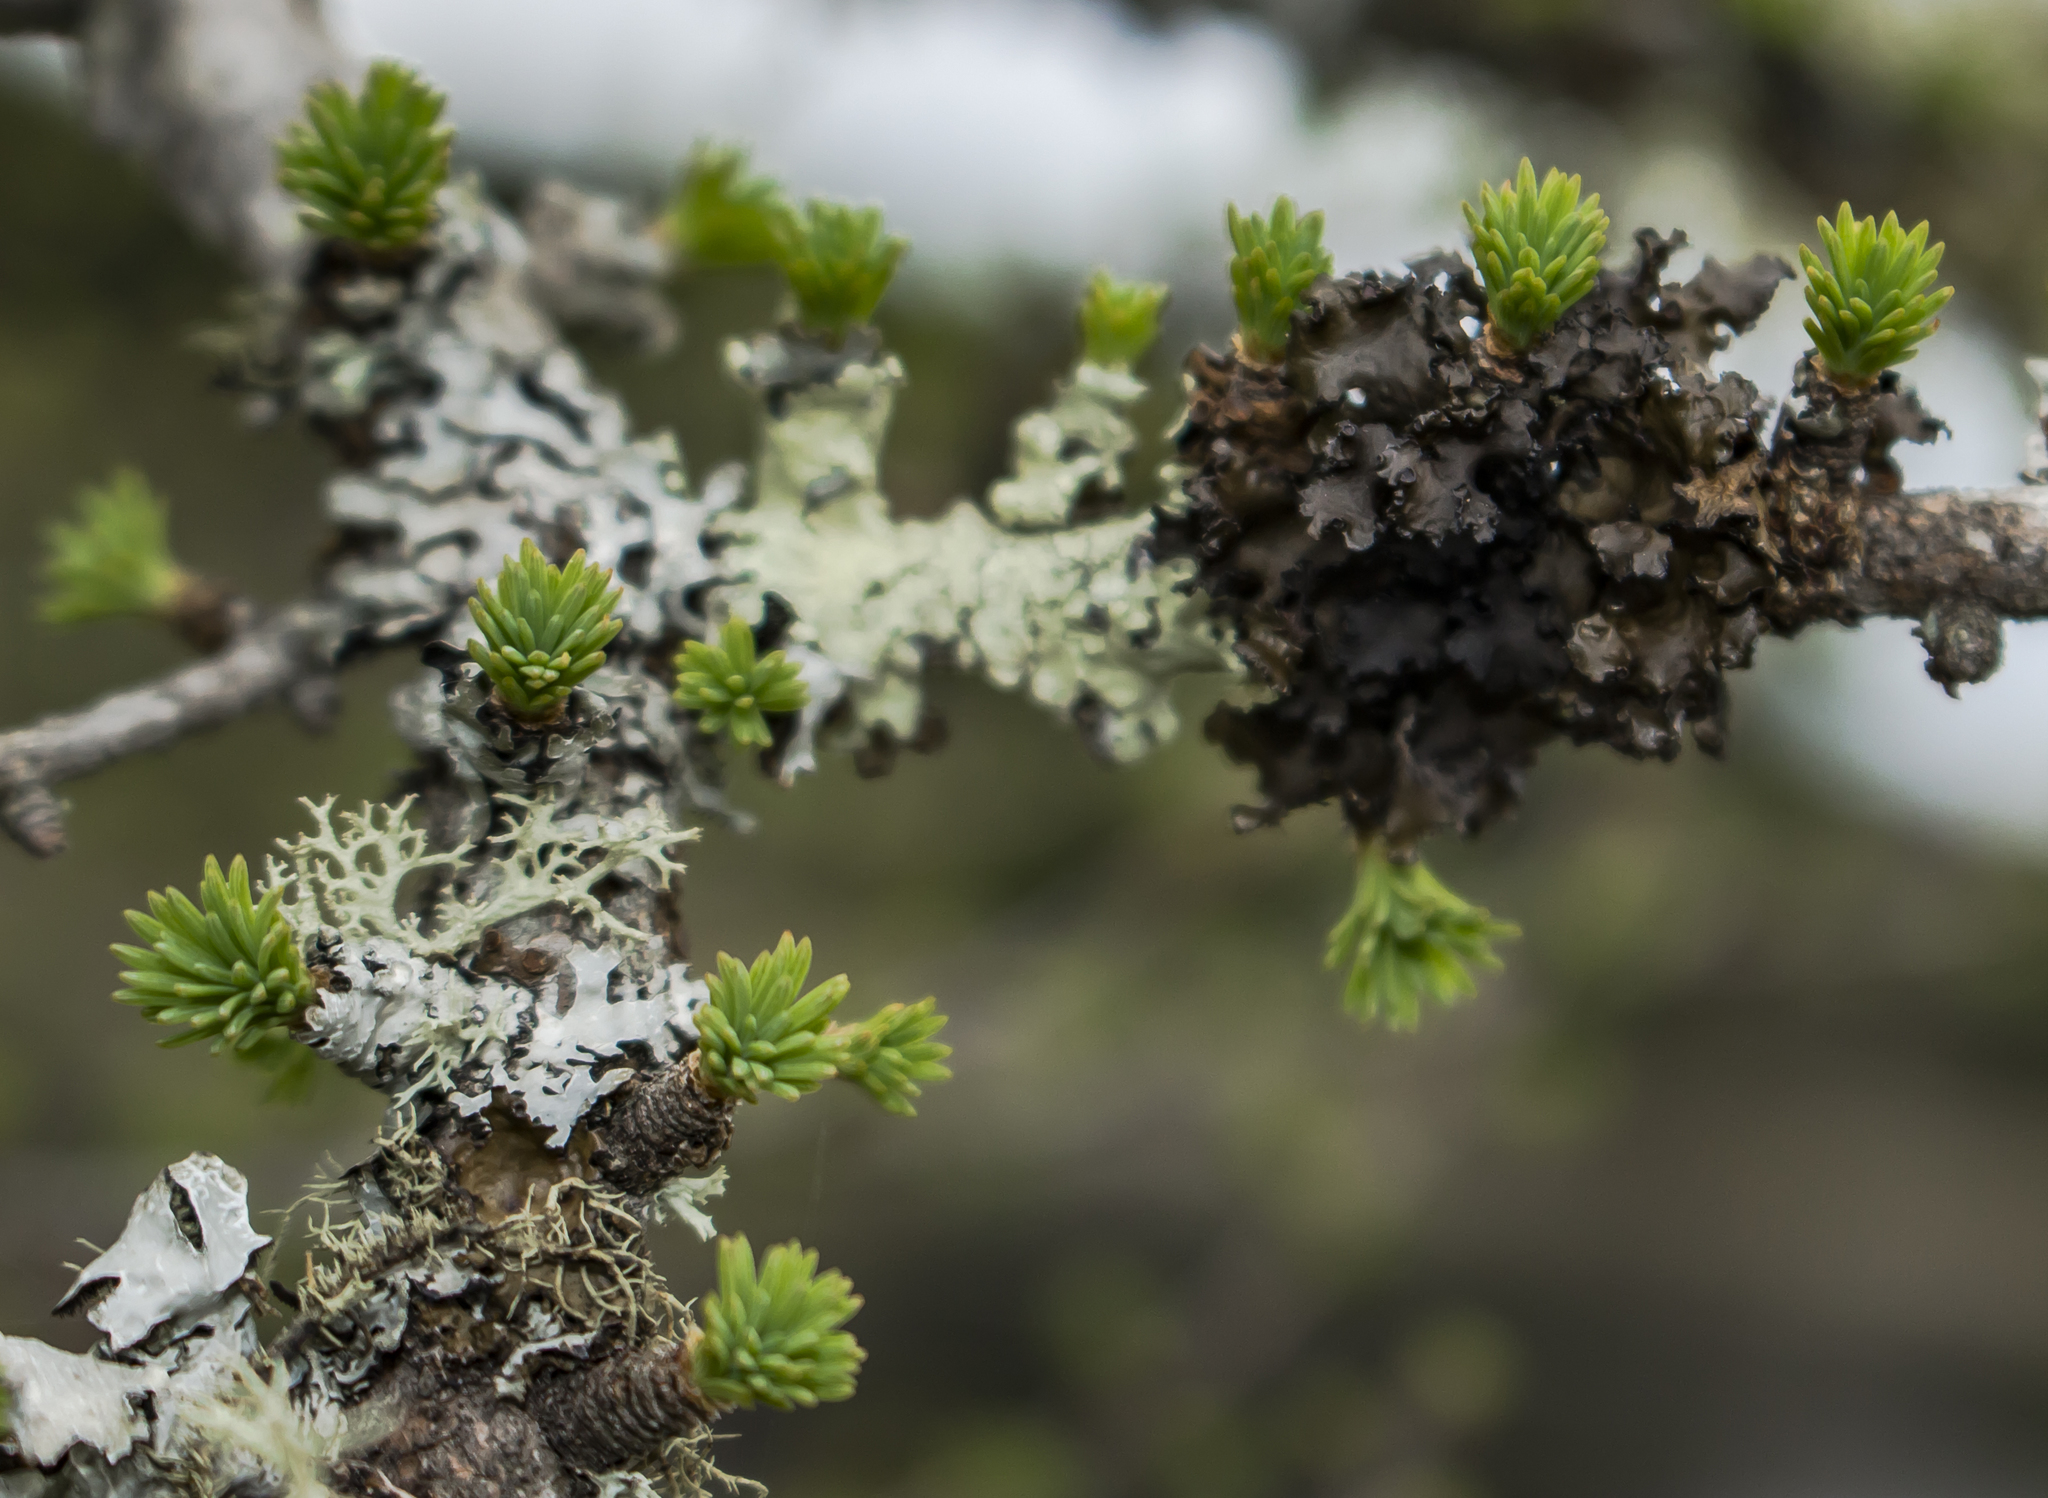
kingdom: Plantae
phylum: Tracheophyta
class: Pinopsida
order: Pinales
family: Pinaceae
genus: Larix
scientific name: Larix laricina
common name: American larch
